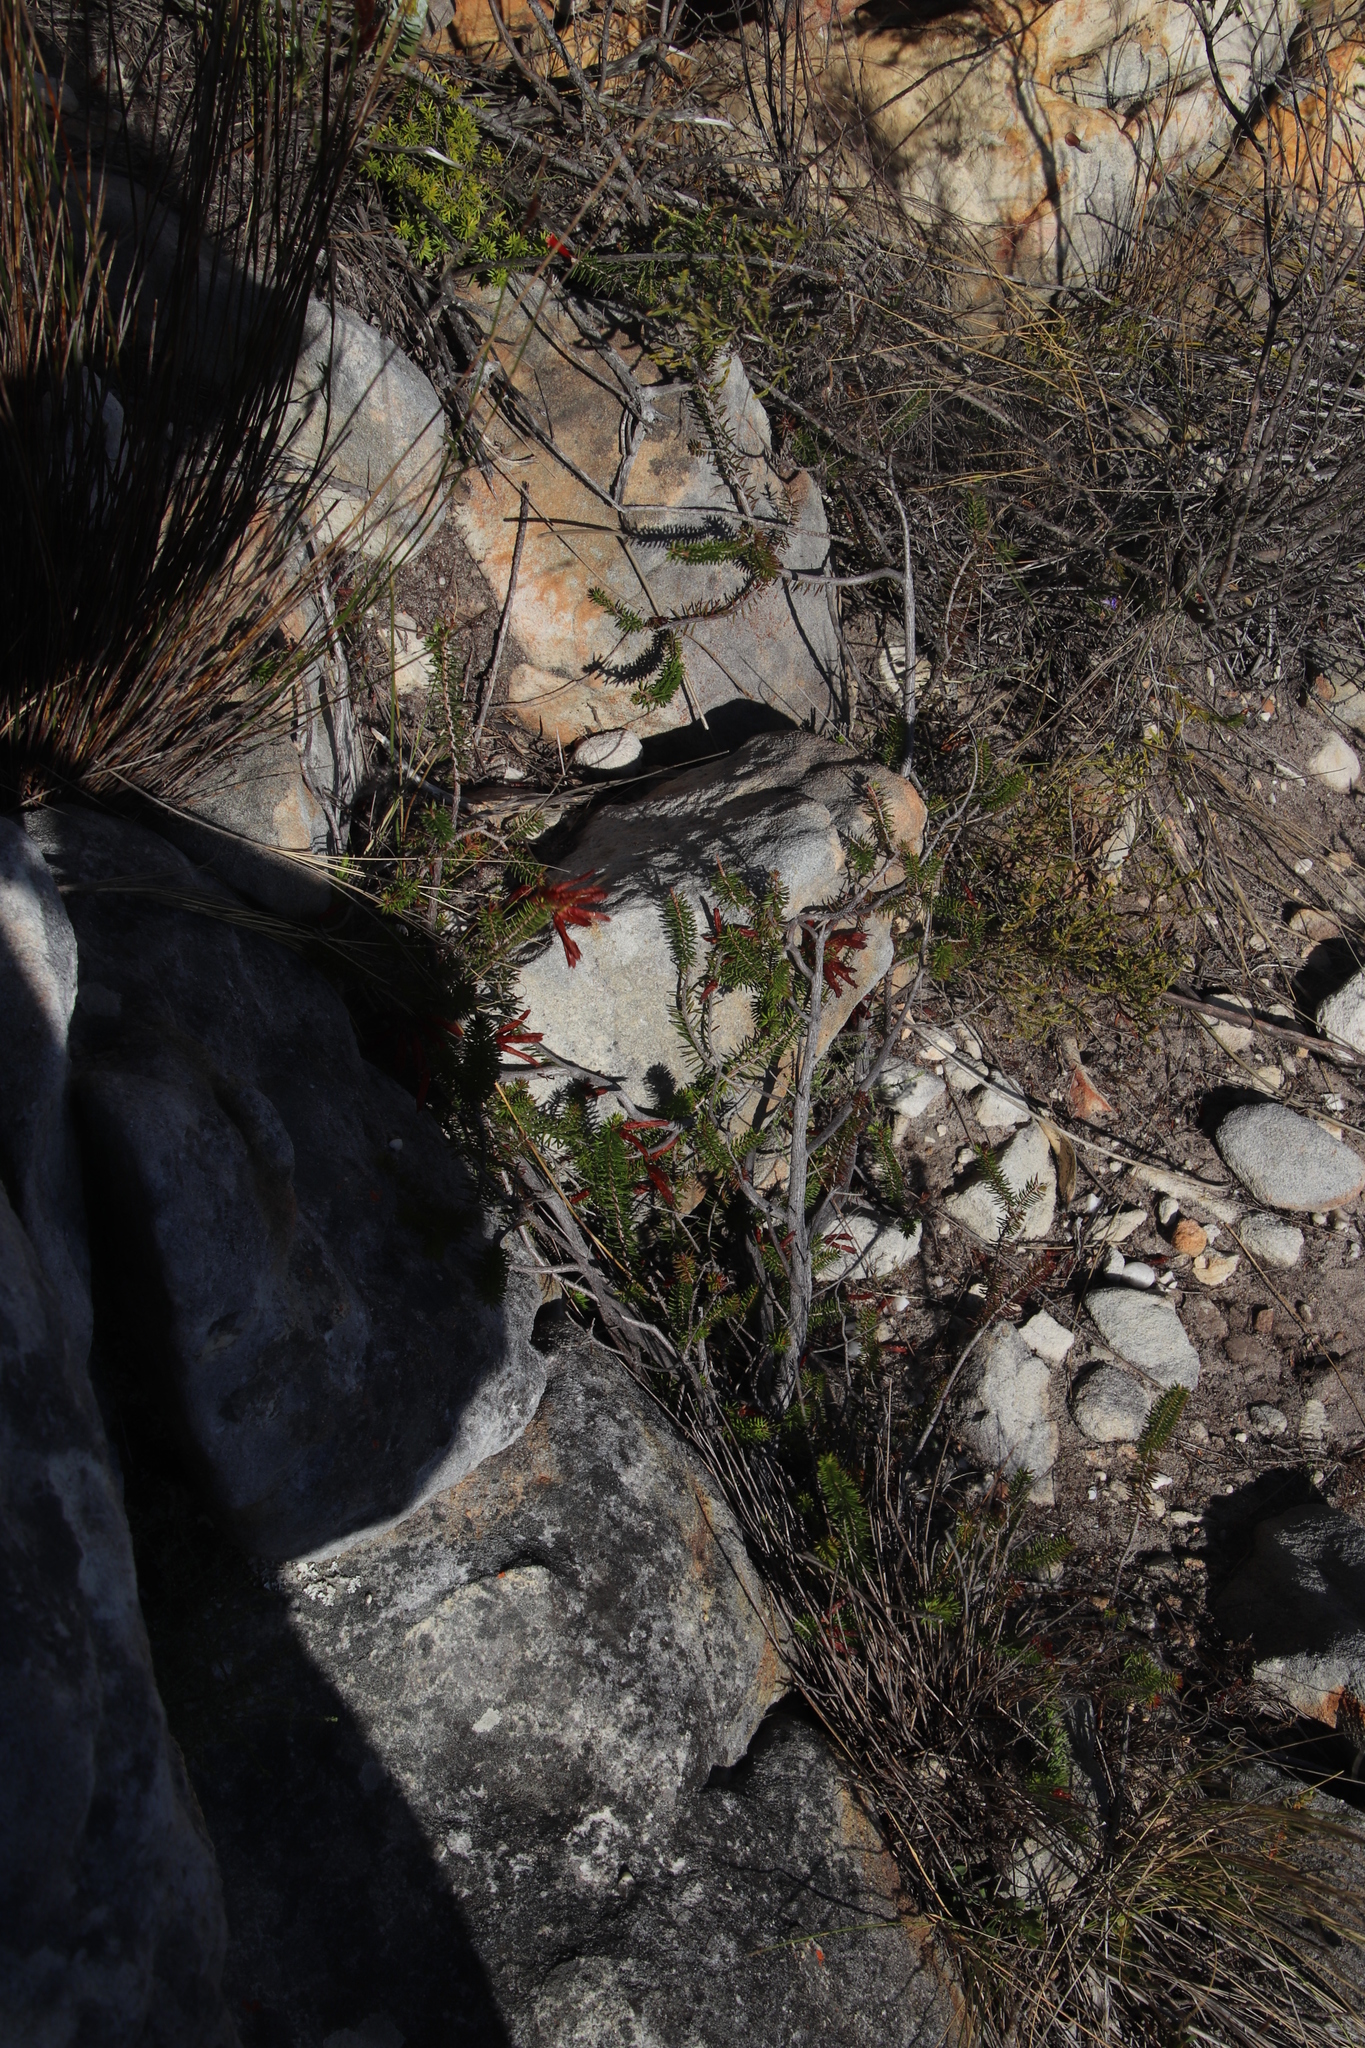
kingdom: Plantae
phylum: Tracheophyta
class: Magnoliopsida
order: Ericales
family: Ericaceae
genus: Erica
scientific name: Erica nevillei
